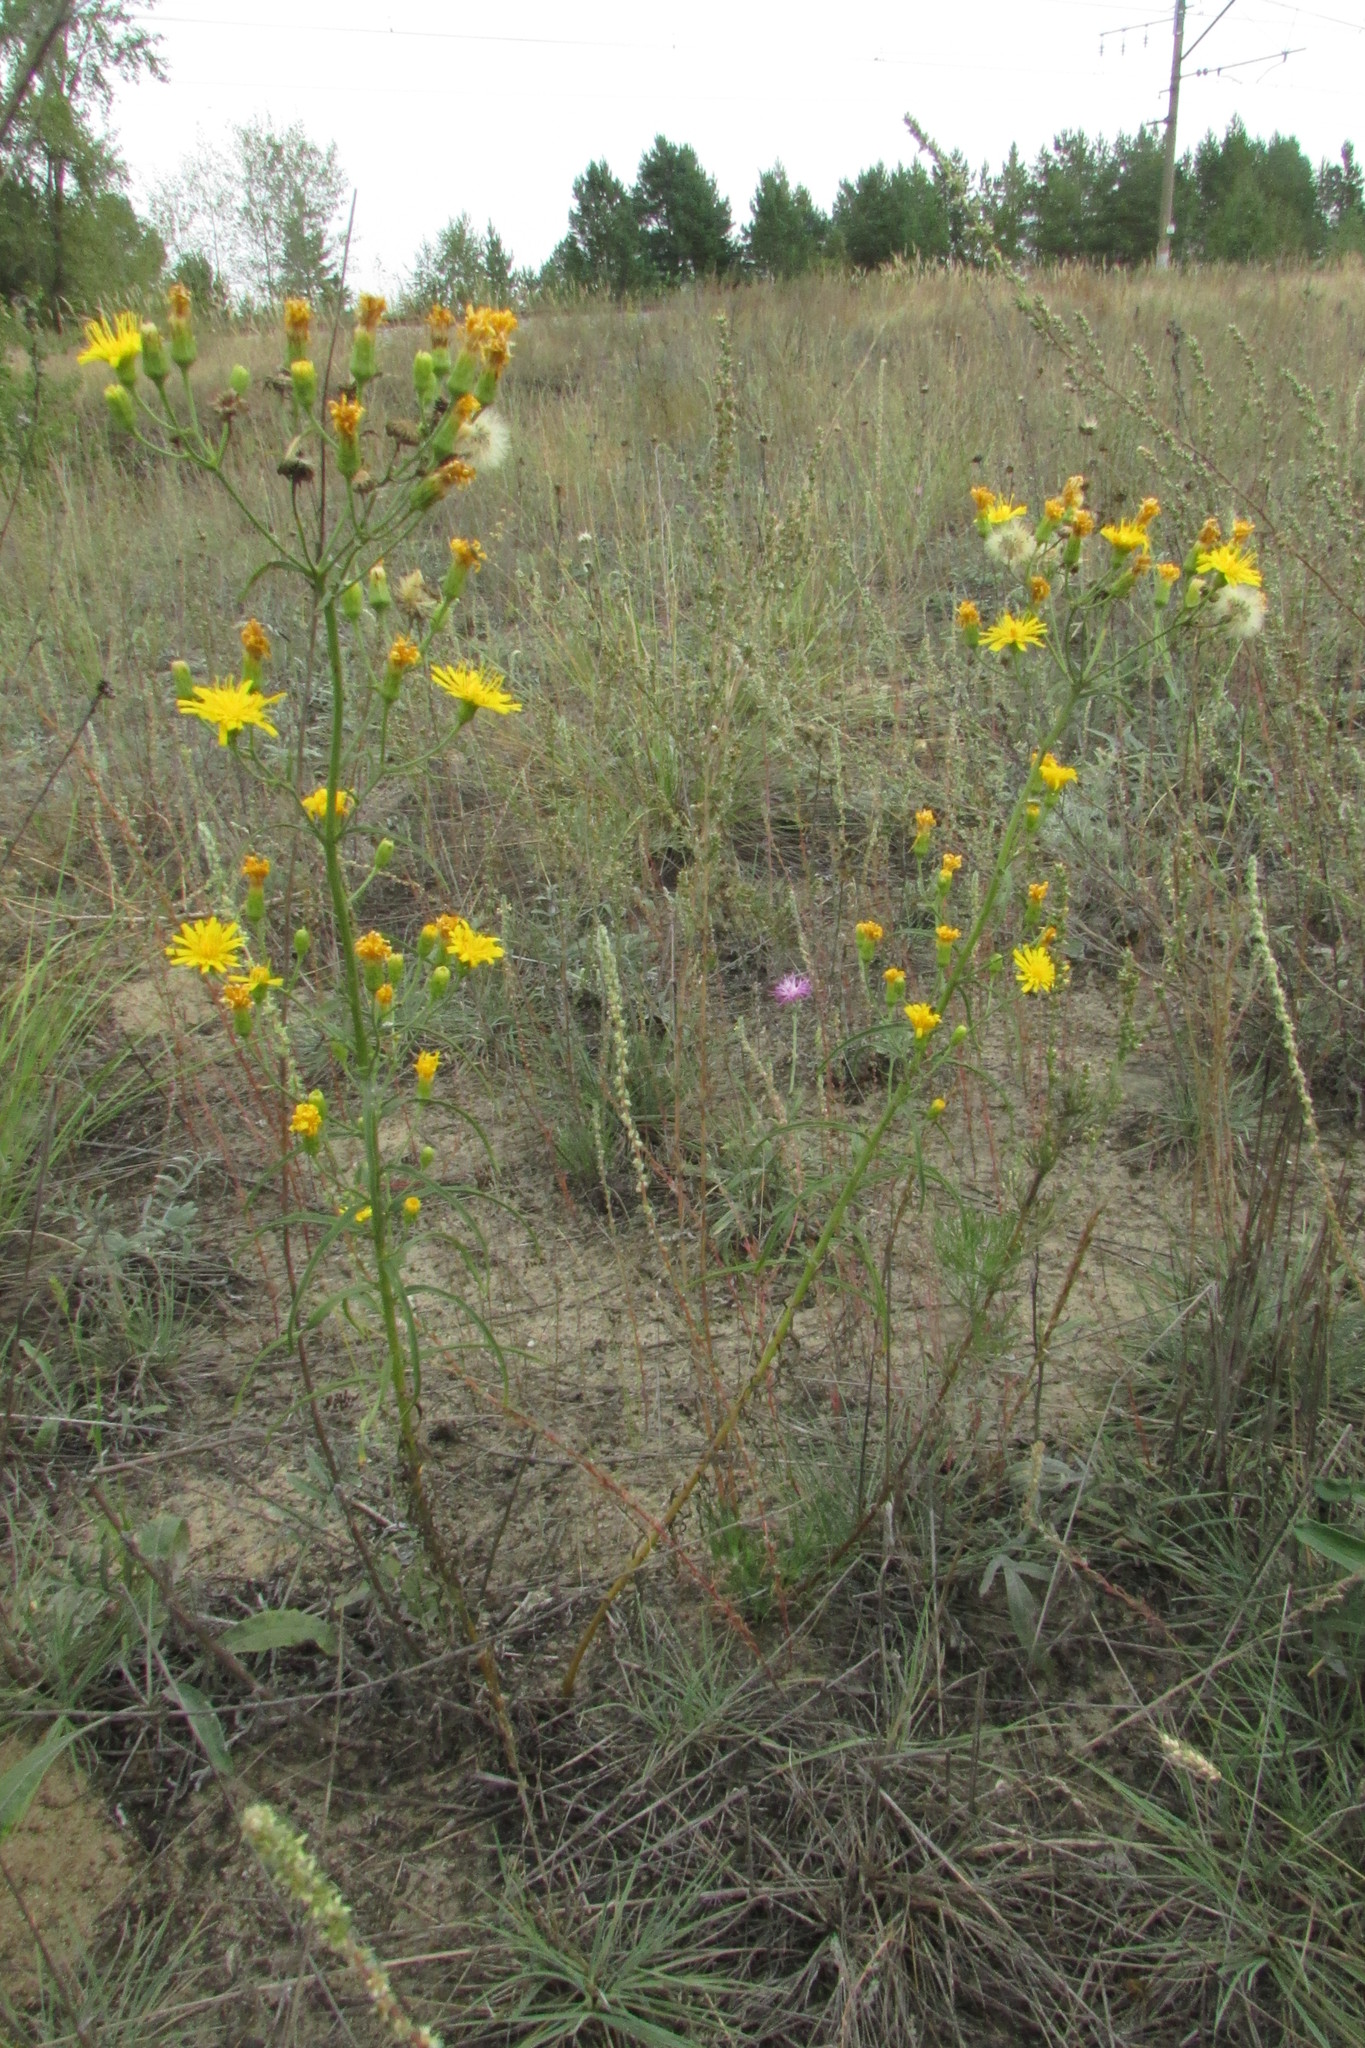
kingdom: Plantae
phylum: Tracheophyta
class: Magnoliopsida
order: Asterales
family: Asteraceae
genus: Hieracium
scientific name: Hieracium umbellatum
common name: Northern hawkweed
